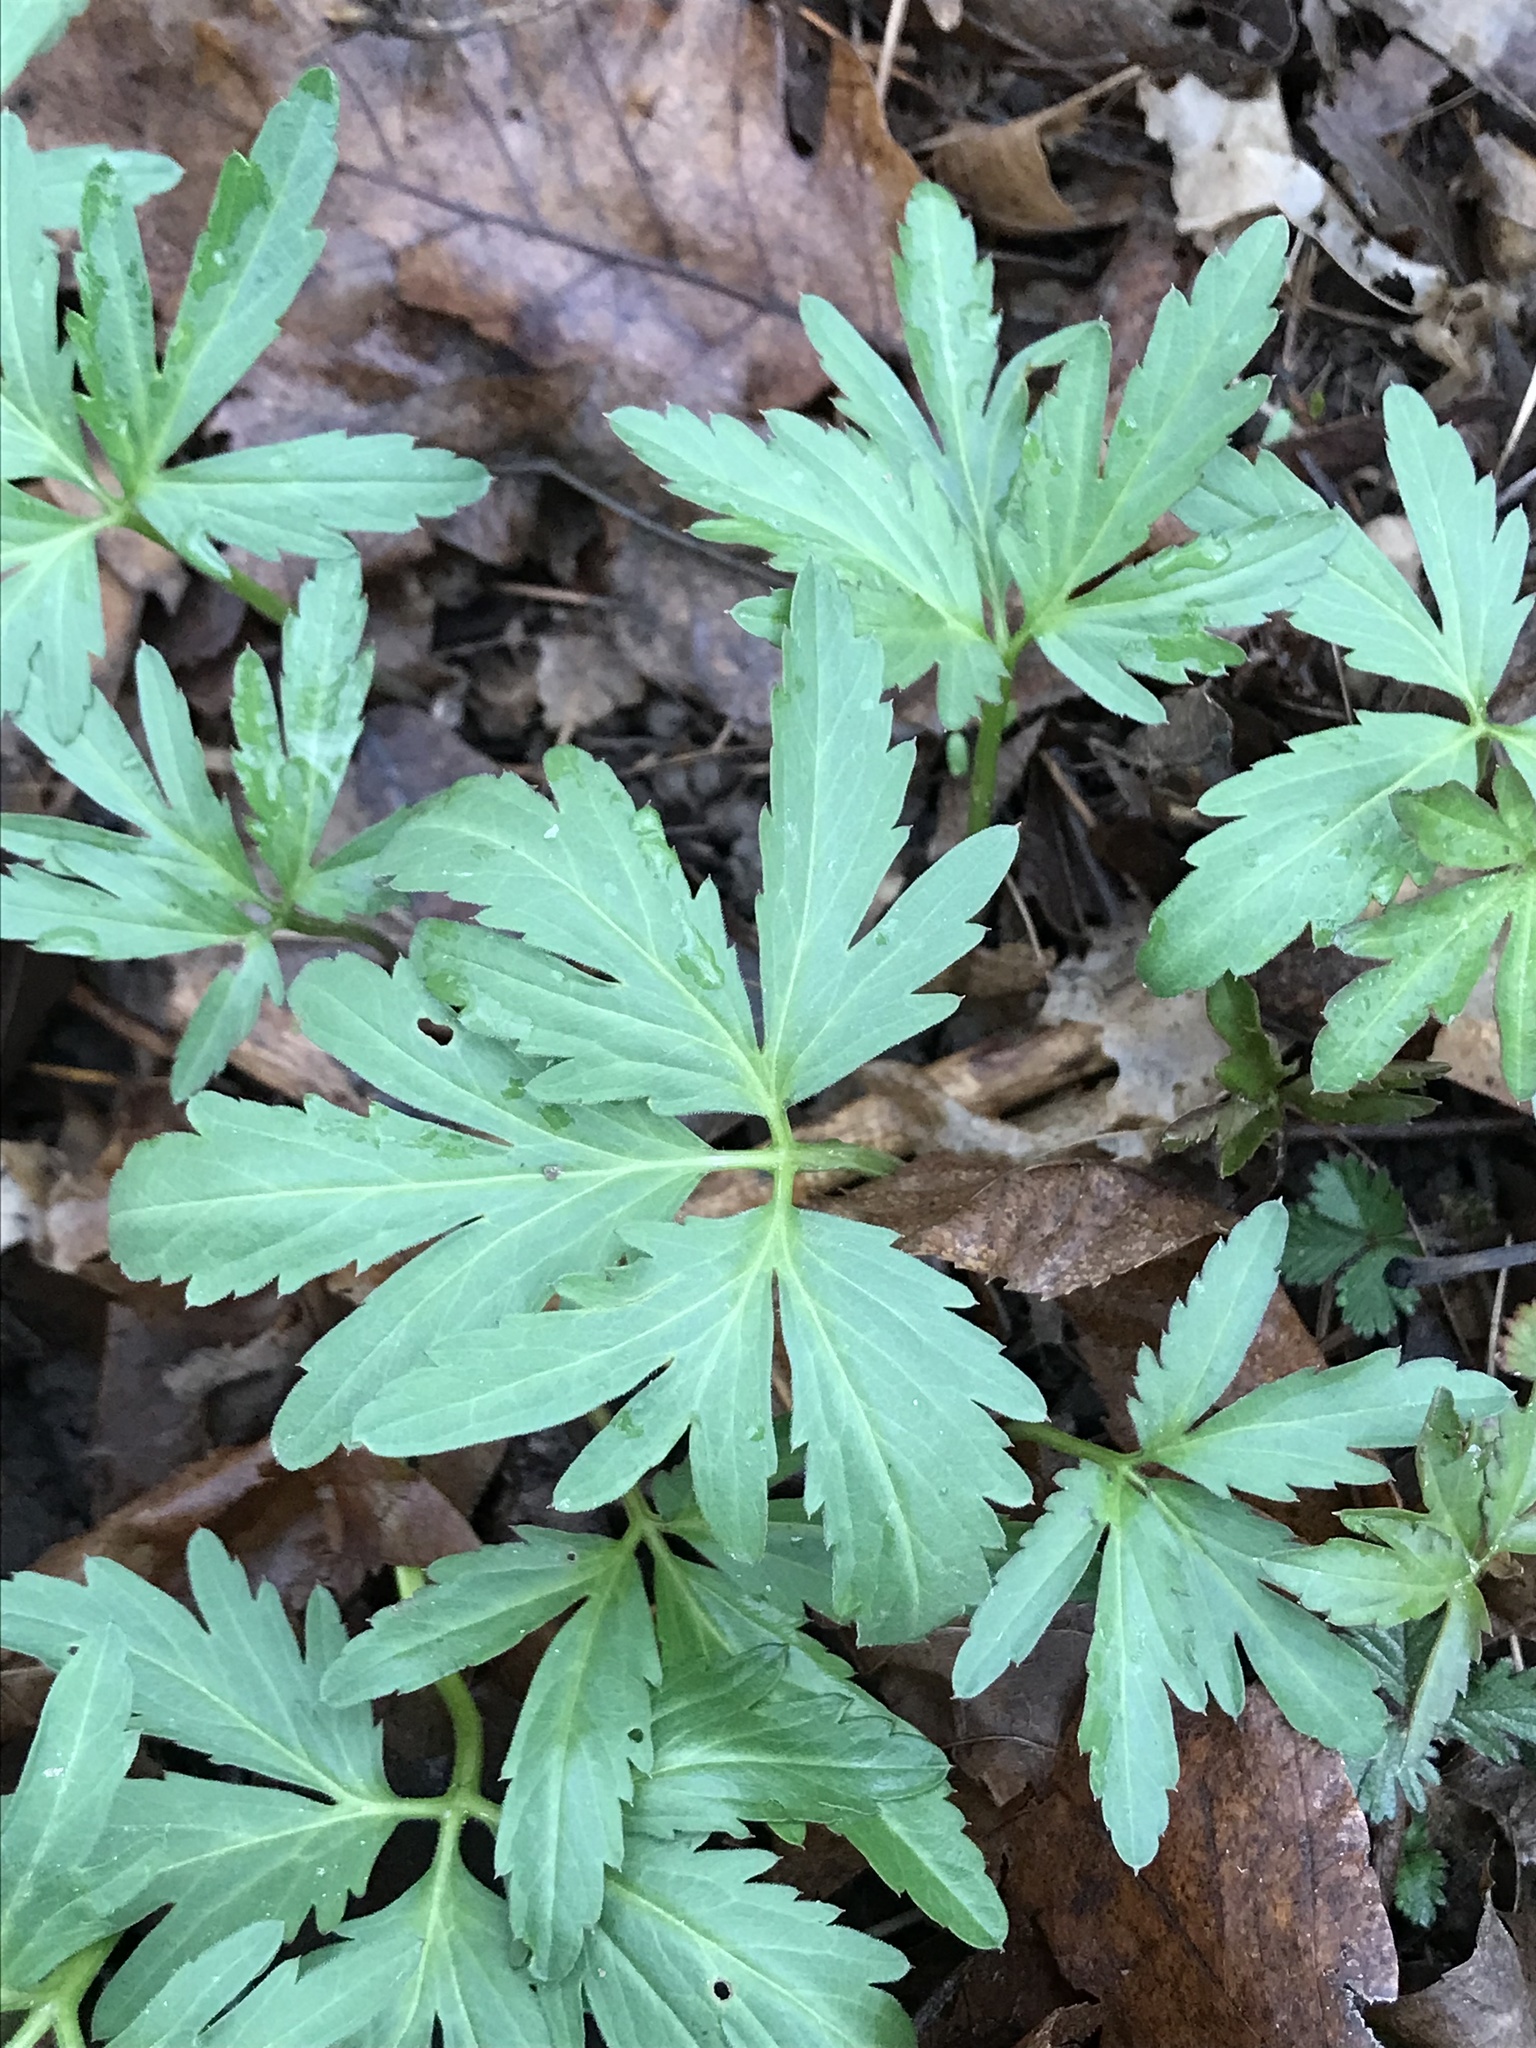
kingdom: Plantae
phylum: Tracheophyta
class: Magnoliopsida
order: Brassicales
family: Brassicaceae
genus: Cardamine
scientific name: Cardamine concatenata
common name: Cut-leaf toothcup
